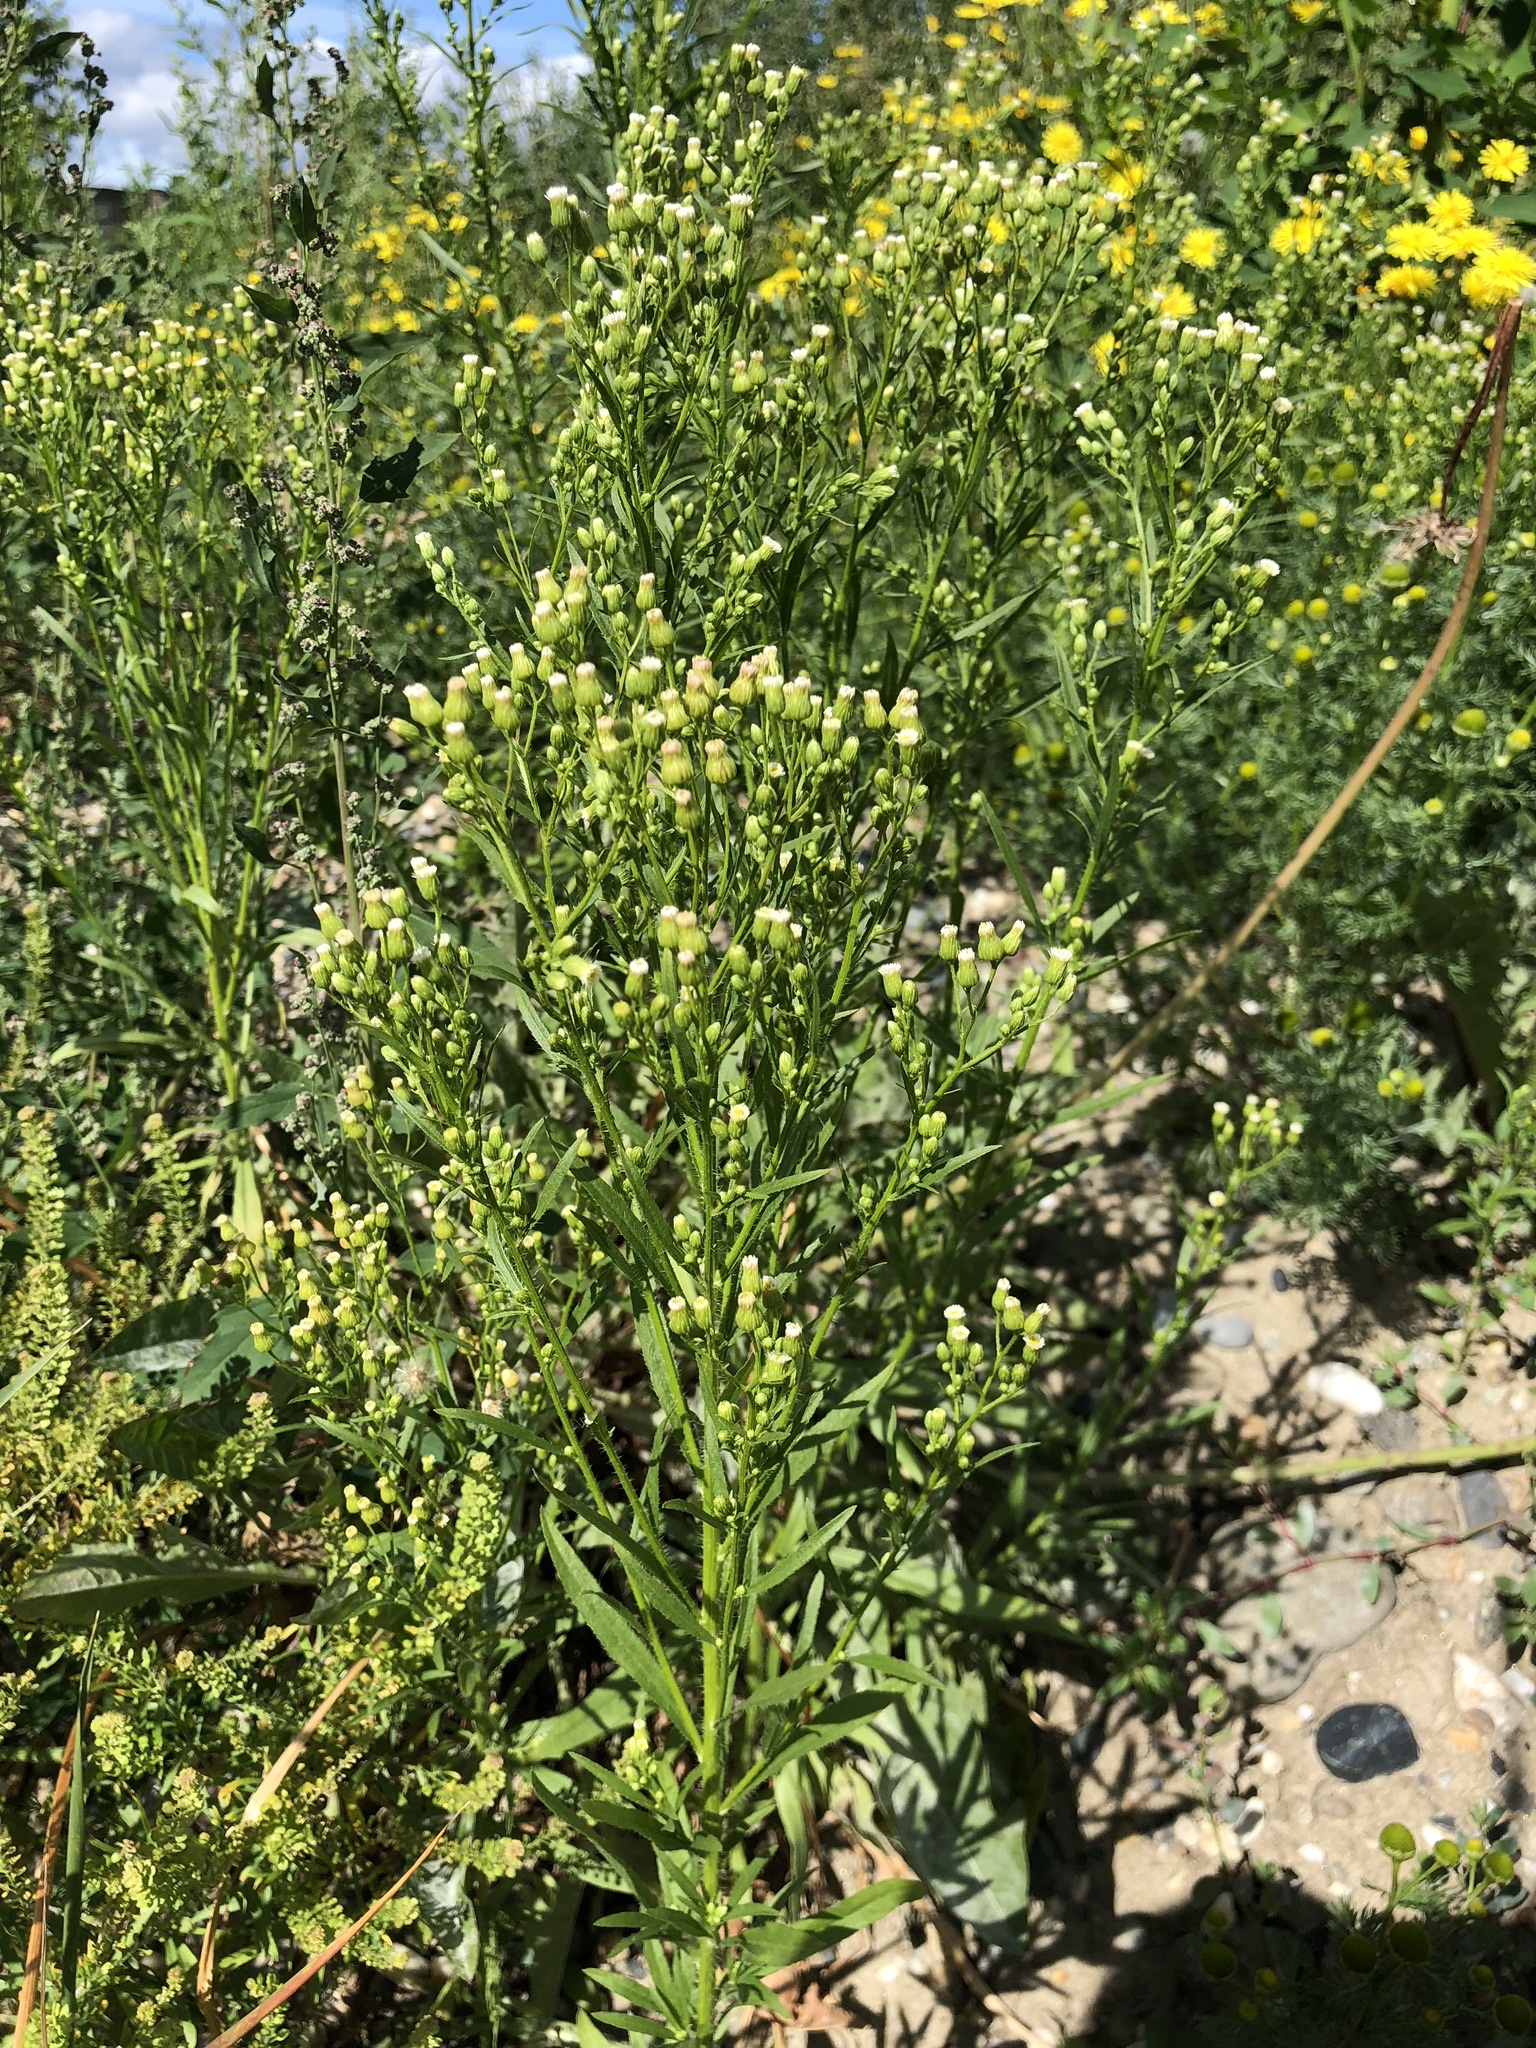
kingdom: Plantae
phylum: Tracheophyta
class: Magnoliopsida
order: Asterales
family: Asteraceae
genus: Erigeron
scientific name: Erigeron canadensis
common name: Canadian fleabane
